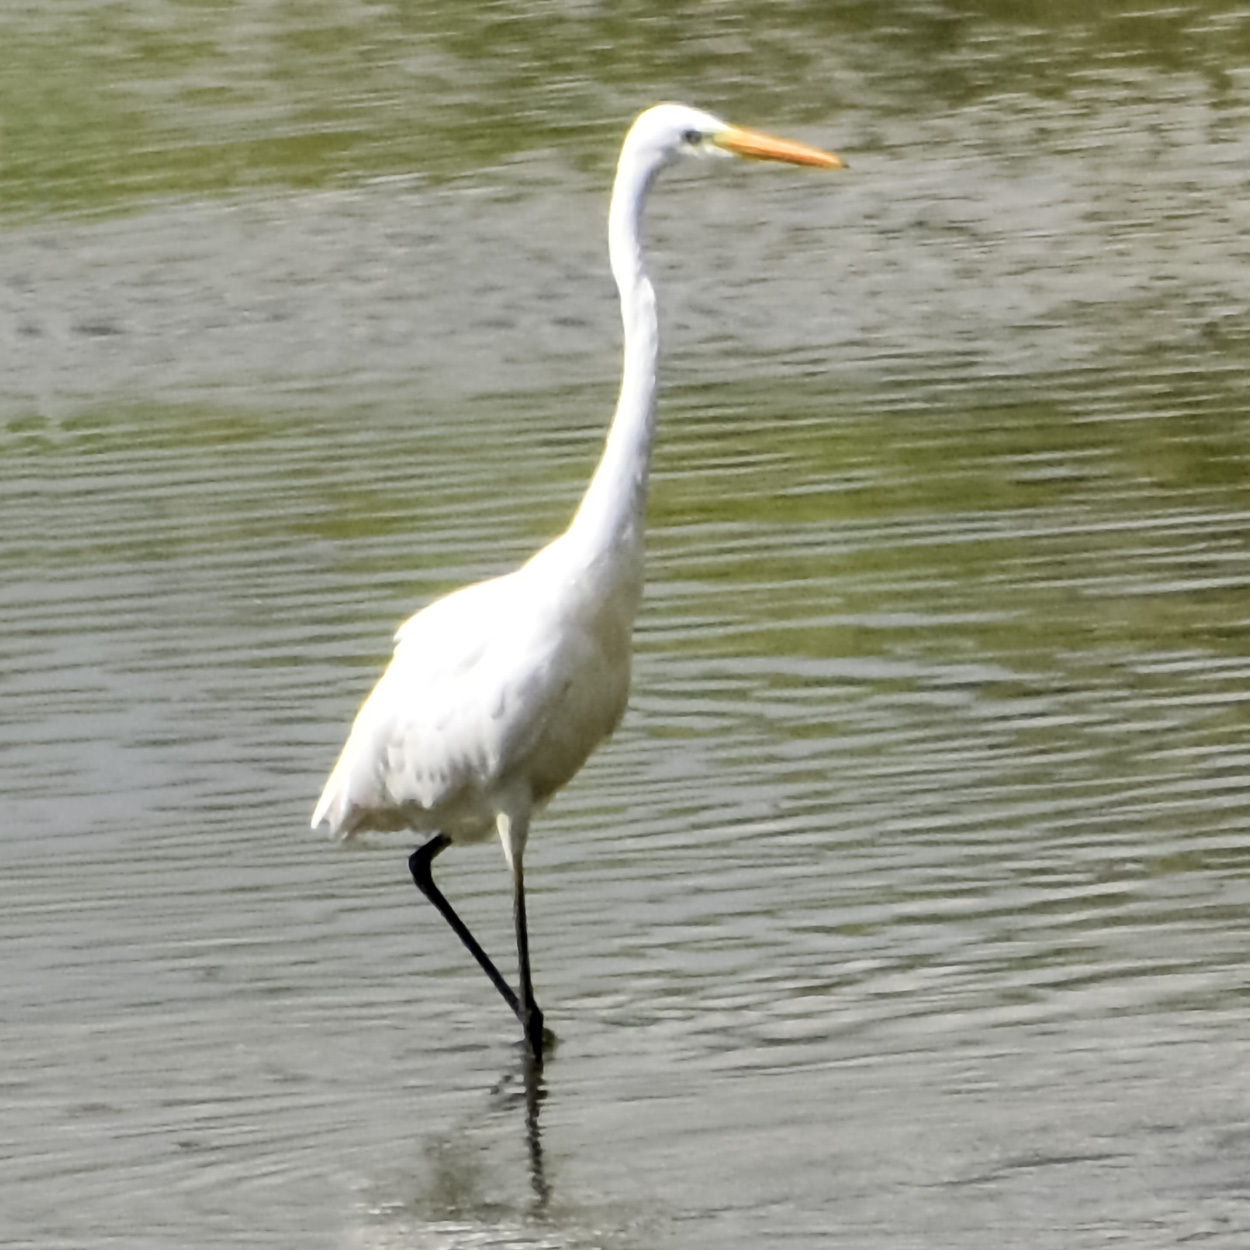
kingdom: Animalia
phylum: Chordata
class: Aves
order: Pelecaniformes
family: Ardeidae
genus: Ardea
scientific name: Ardea alba
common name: Great egret
